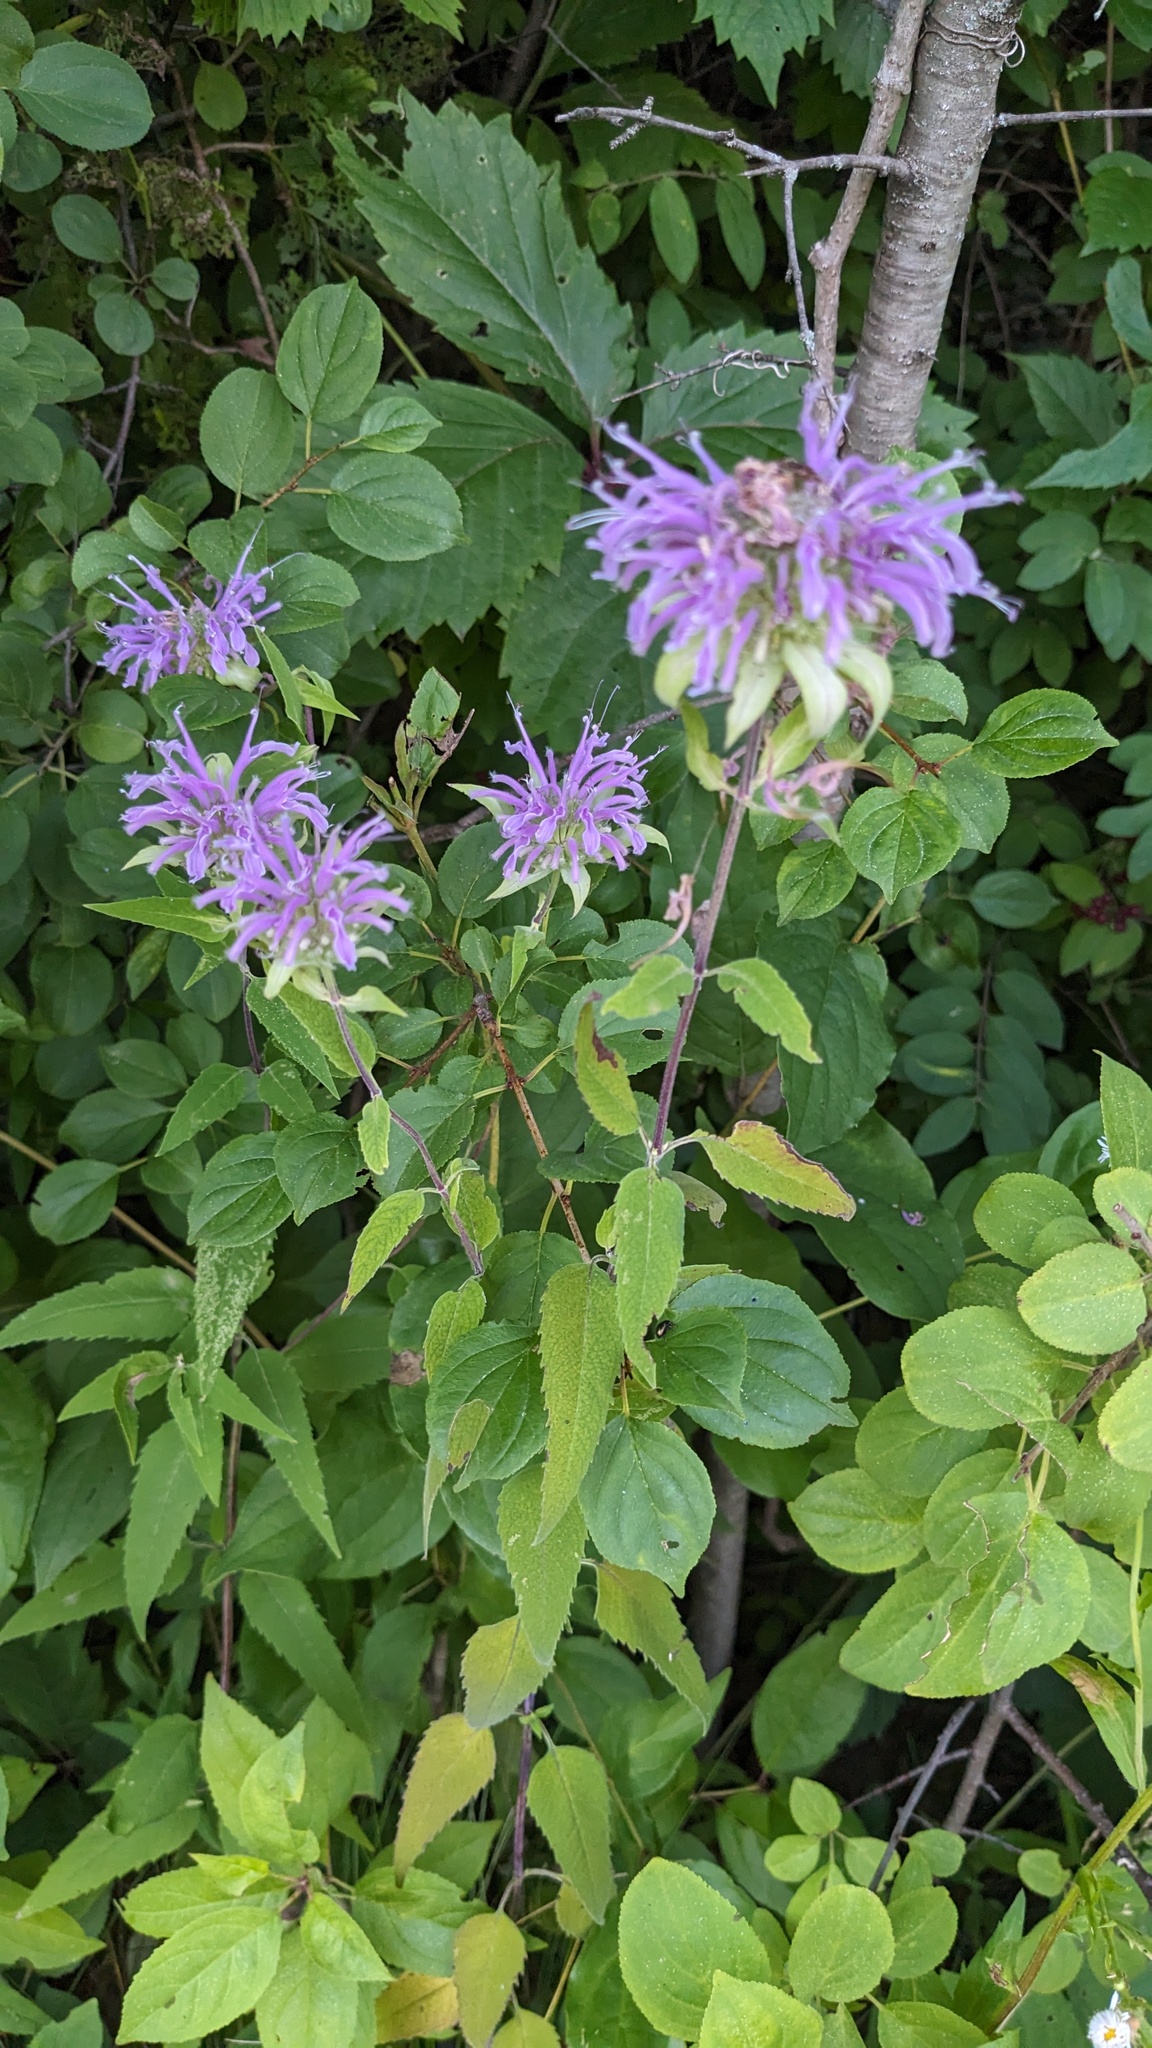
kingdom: Plantae
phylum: Tracheophyta
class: Magnoliopsida
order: Lamiales
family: Lamiaceae
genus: Monarda
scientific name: Monarda fistulosa
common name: Purple beebalm
